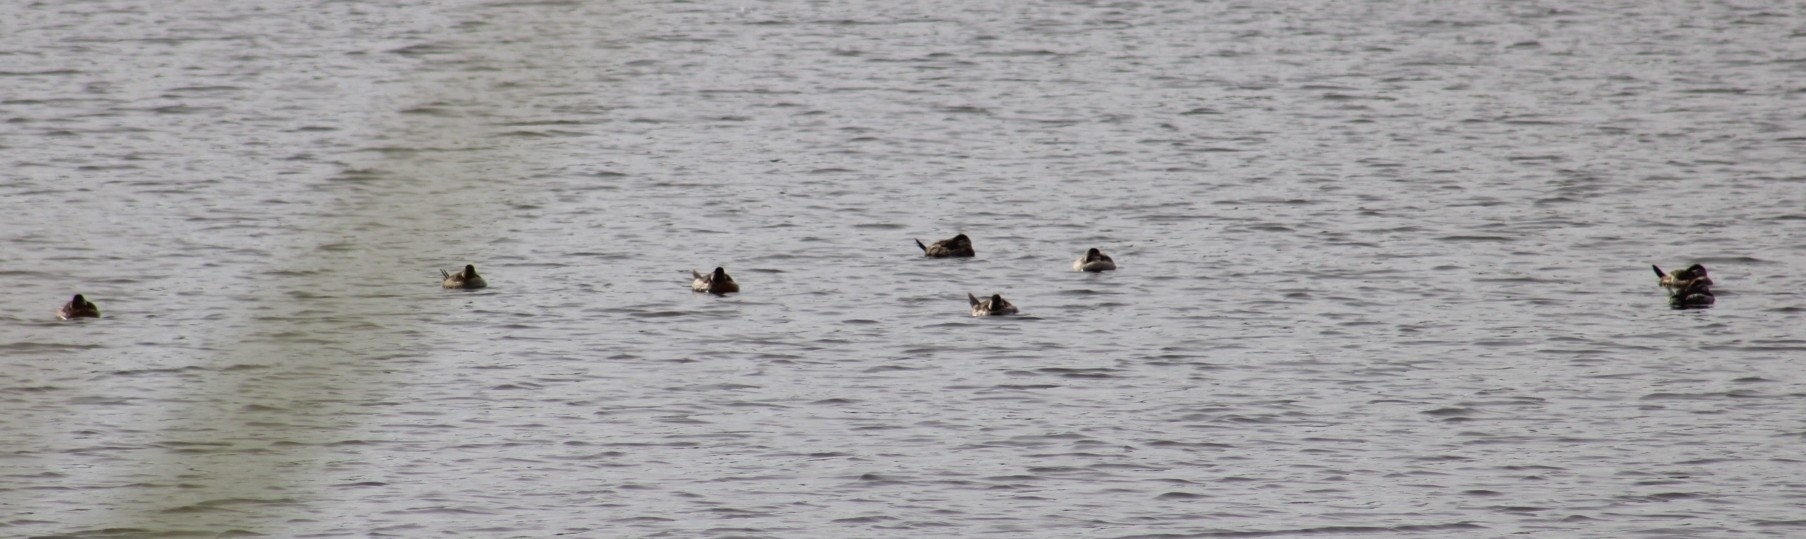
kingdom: Animalia
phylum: Chordata
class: Aves
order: Anseriformes
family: Anatidae
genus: Oxyura
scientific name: Oxyura jamaicensis
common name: Ruddy duck
